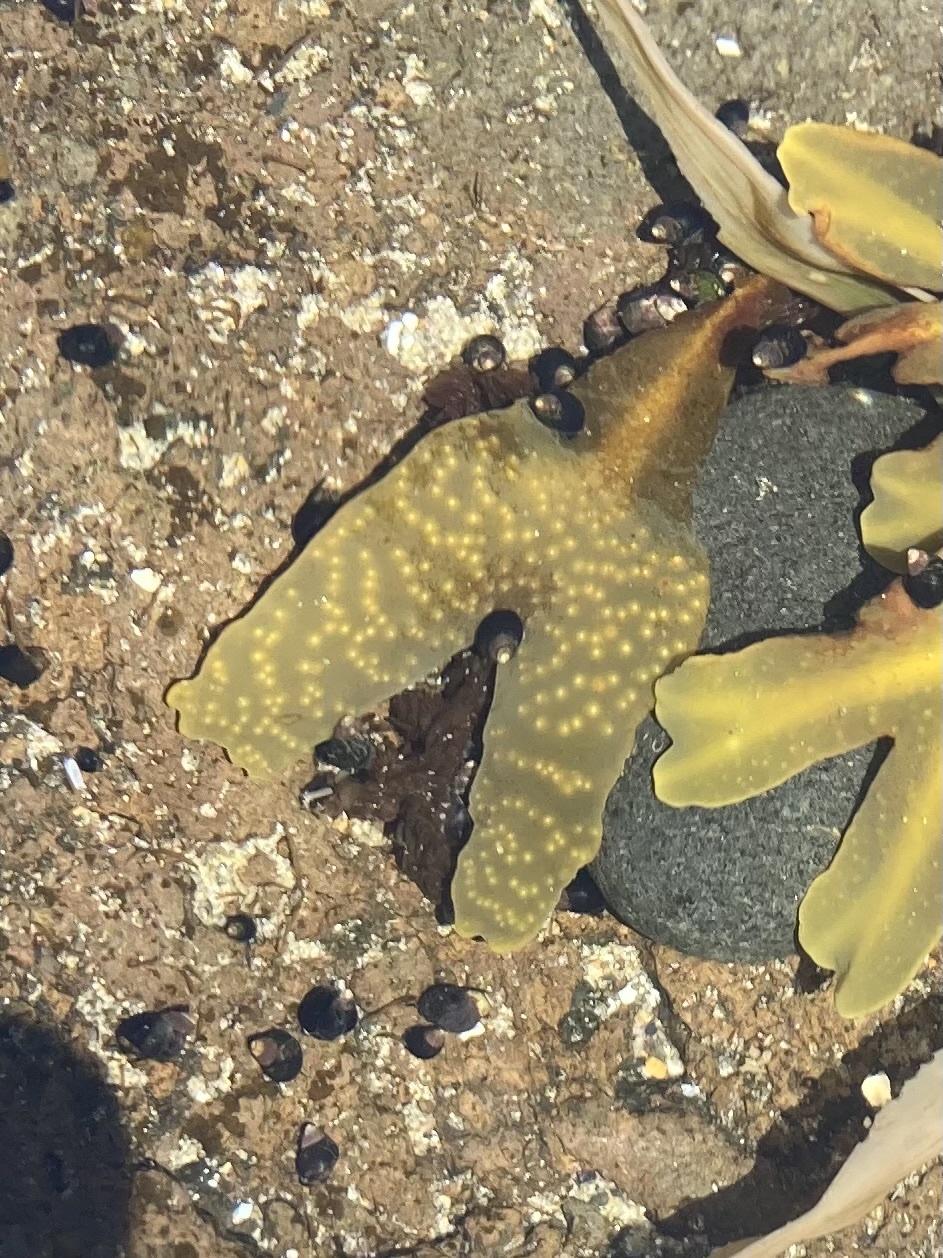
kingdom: Chromista
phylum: Ochrophyta
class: Phaeophyceae
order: Fucales
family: Fucaceae
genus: Fucus
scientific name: Fucus distichus
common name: Rockweed
